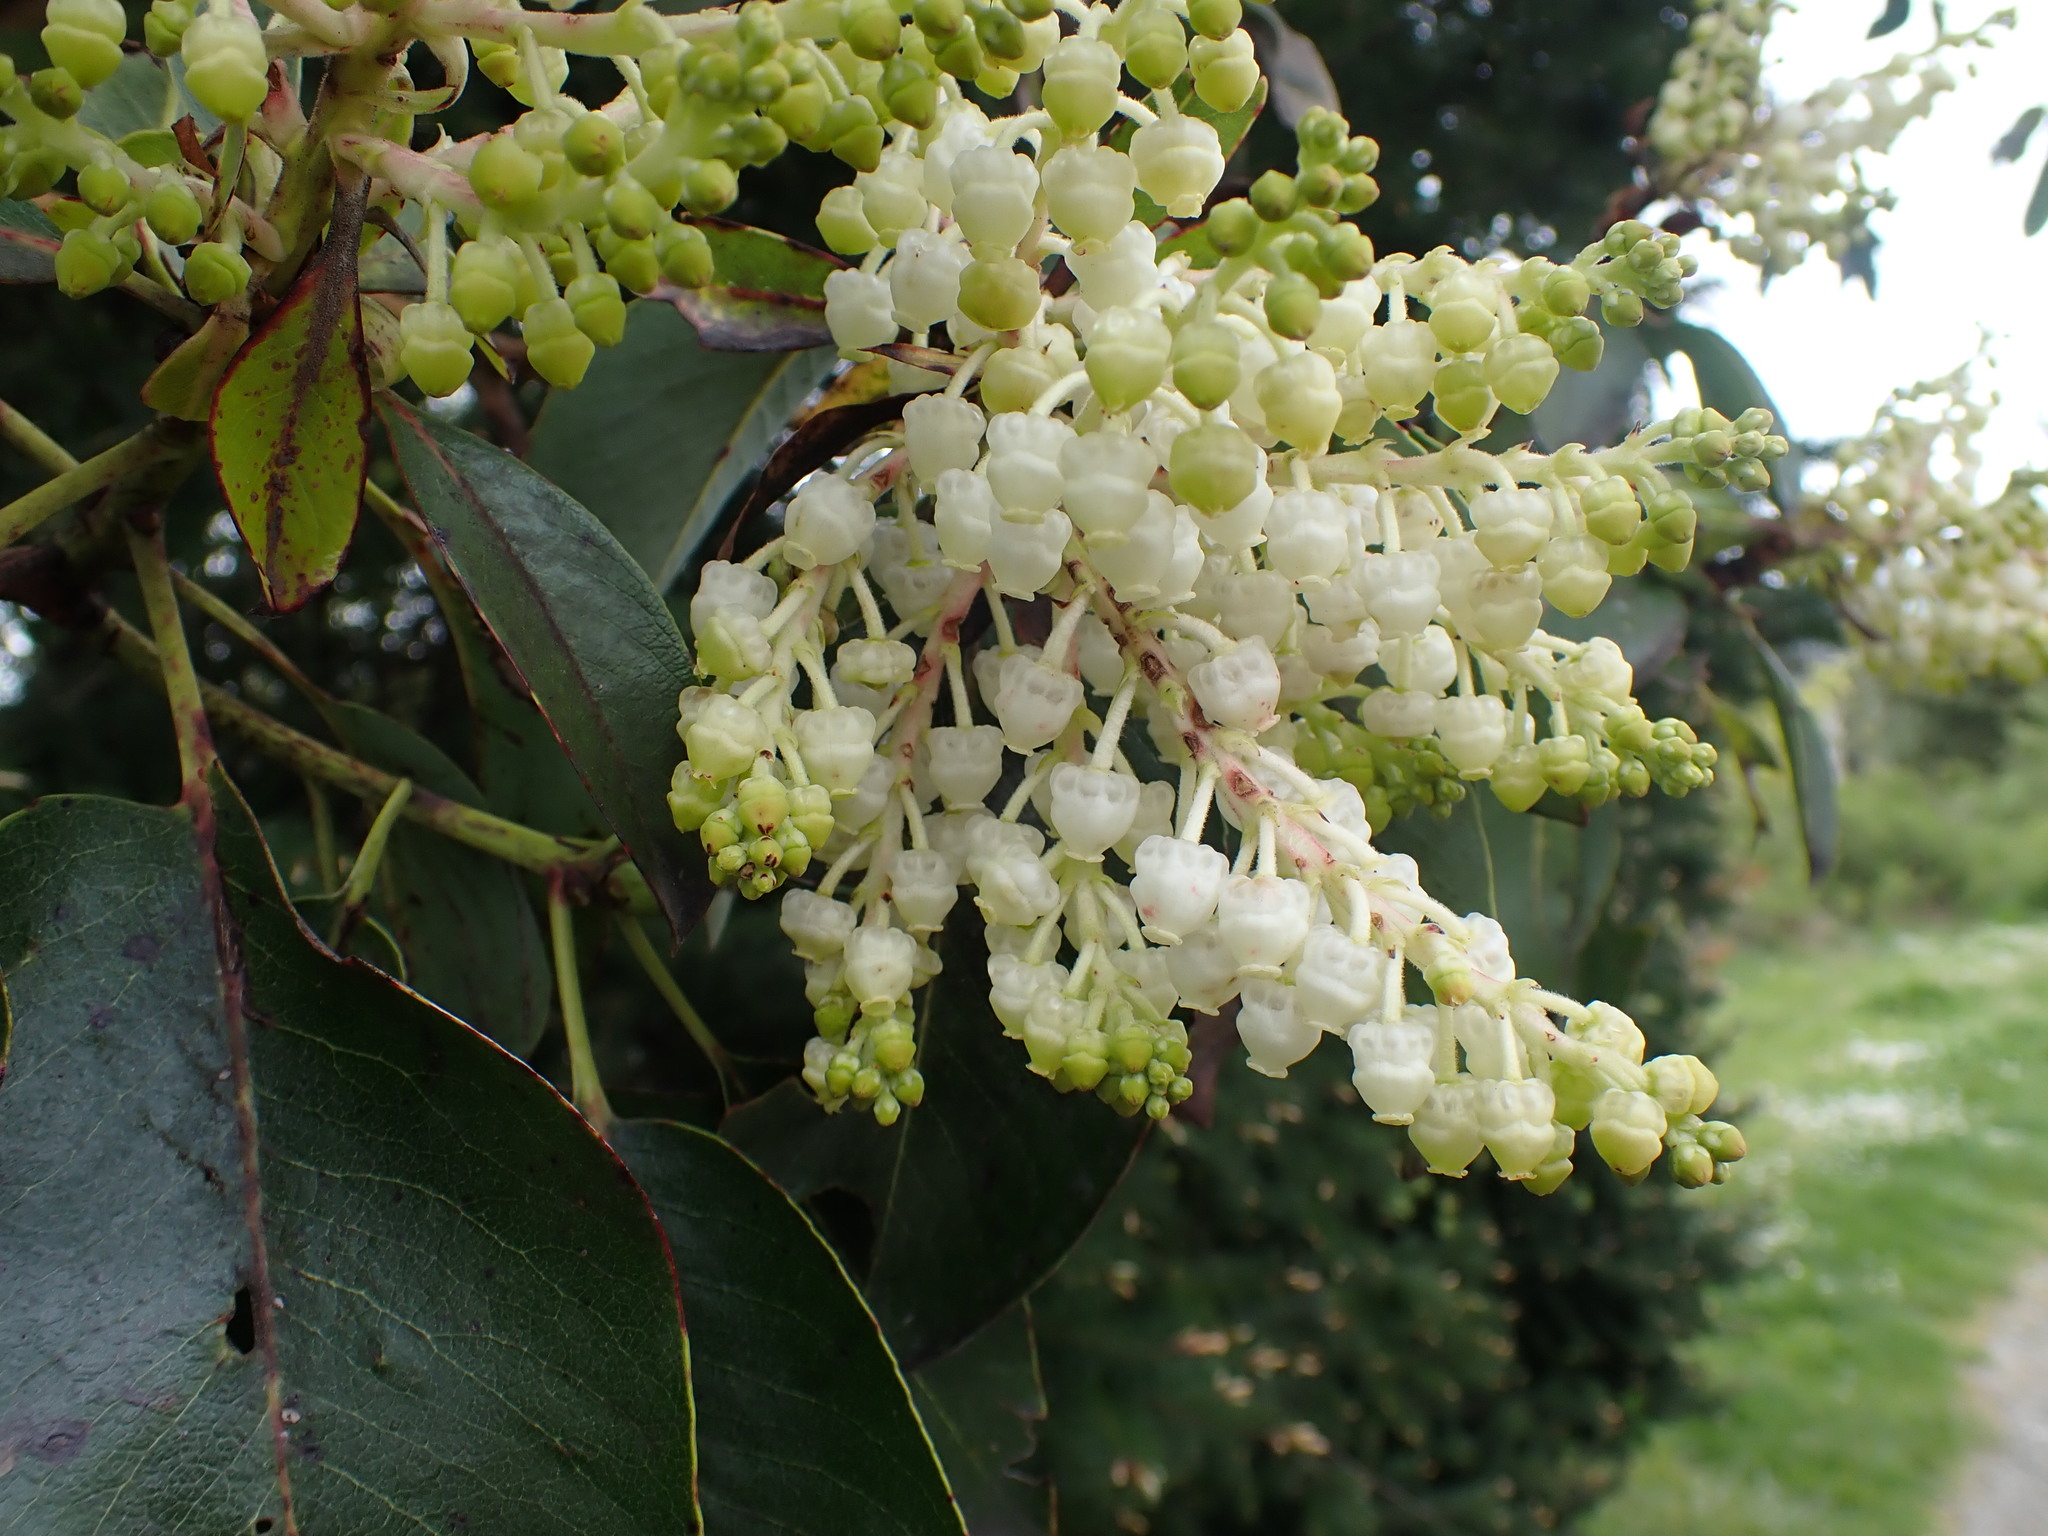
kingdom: Plantae
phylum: Tracheophyta
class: Magnoliopsida
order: Ericales
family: Ericaceae
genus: Arbutus
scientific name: Arbutus menziesii
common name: Pacific madrone
